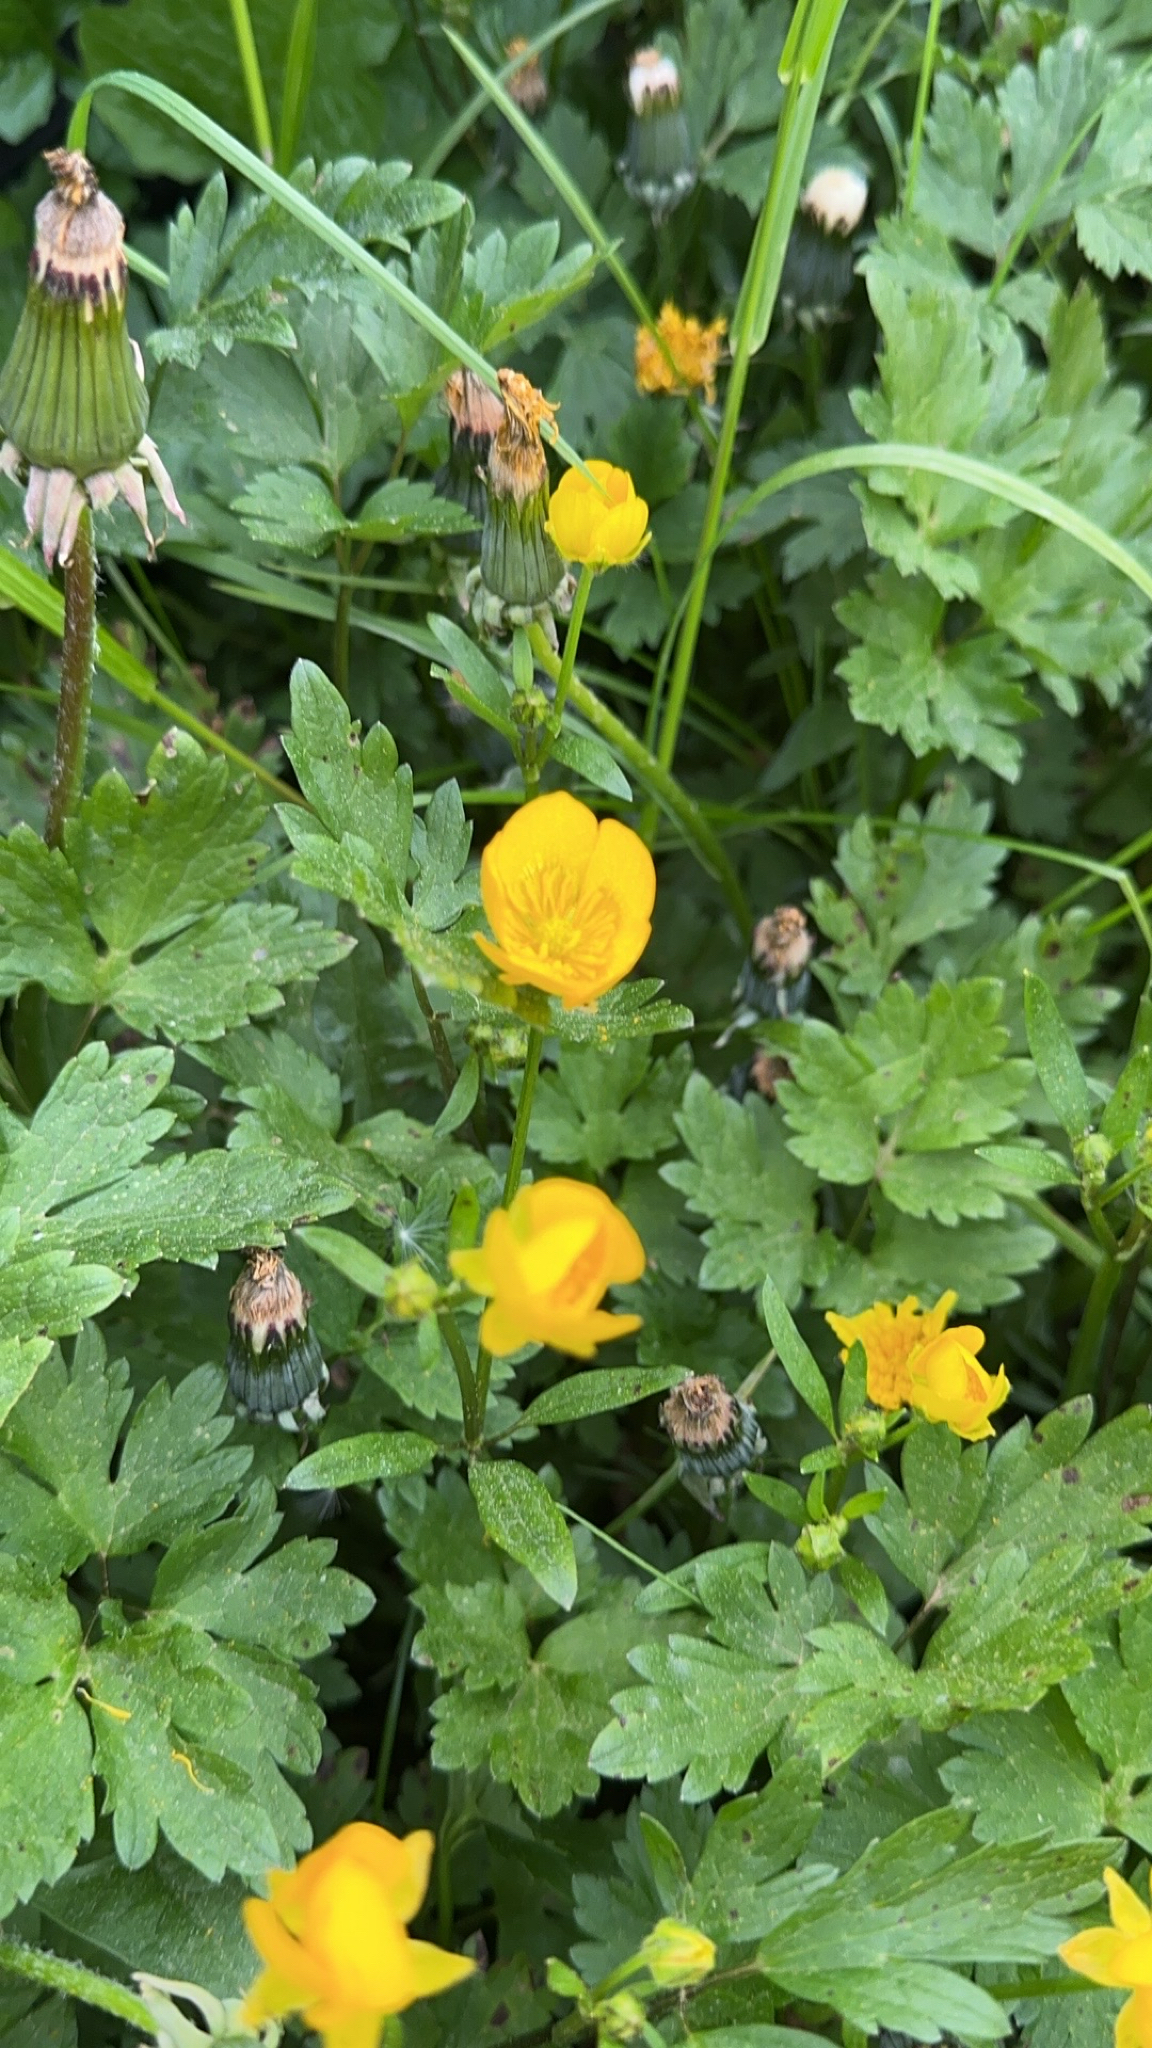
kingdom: Plantae
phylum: Tracheophyta
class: Magnoliopsida
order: Ranunculales
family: Ranunculaceae
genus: Ranunculus
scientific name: Ranunculus repens
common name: Creeping buttercup
